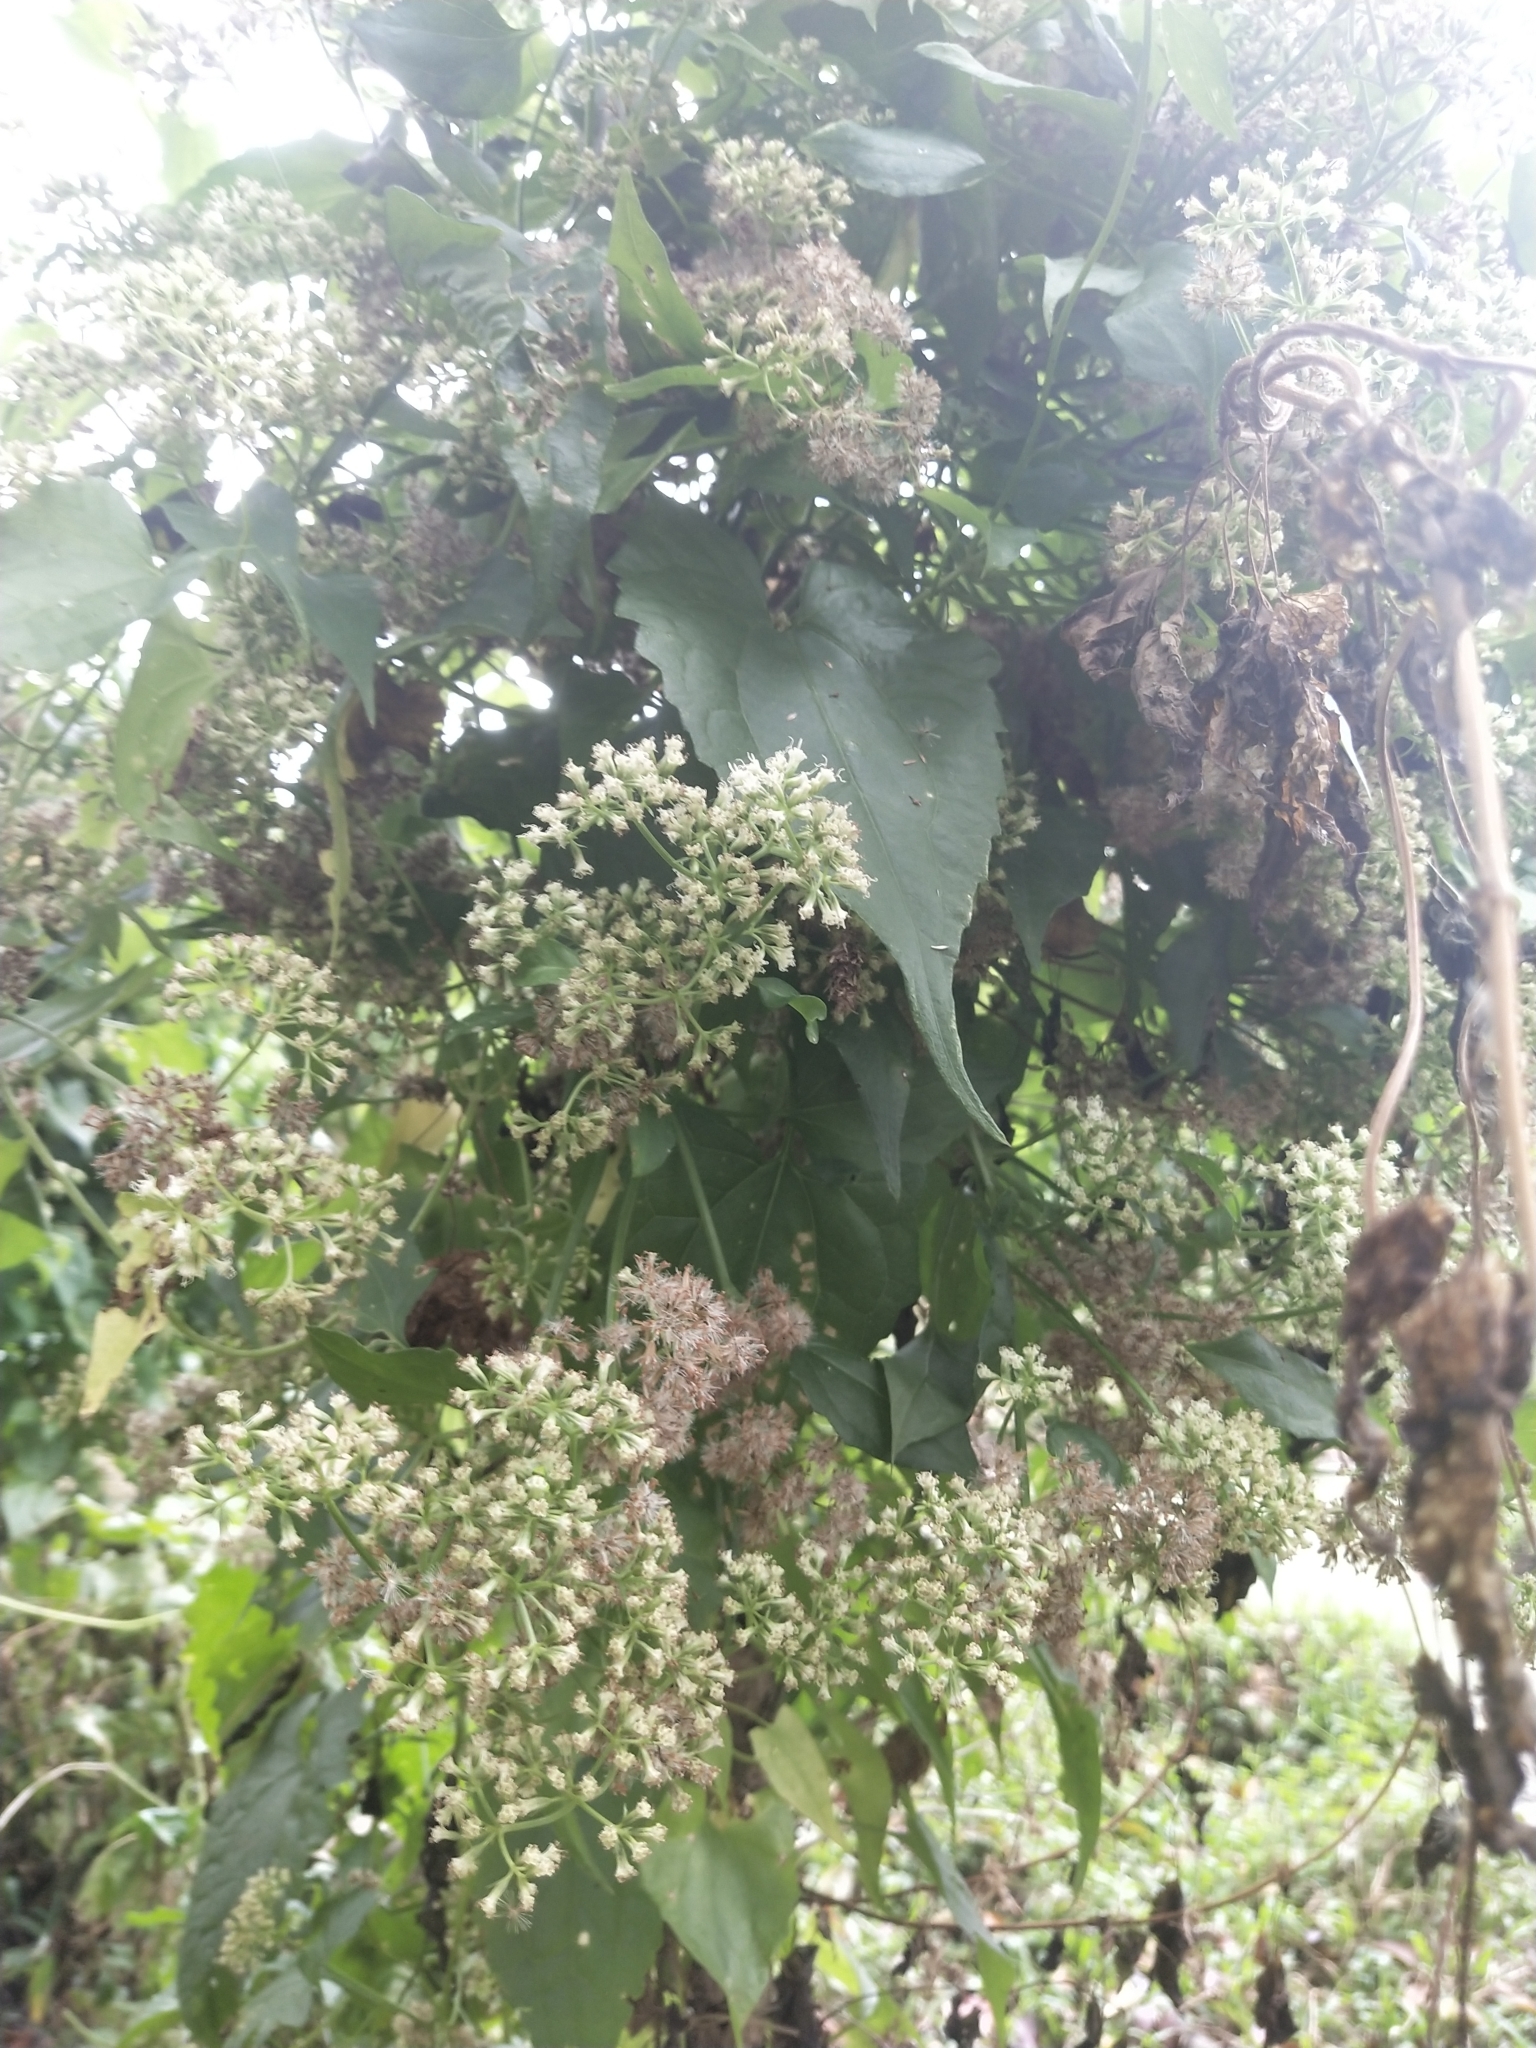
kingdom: Plantae
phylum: Tracheophyta
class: Magnoliopsida
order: Asterales
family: Asteraceae
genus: Mikania
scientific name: Mikania micrantha
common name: Mile-a-minute
